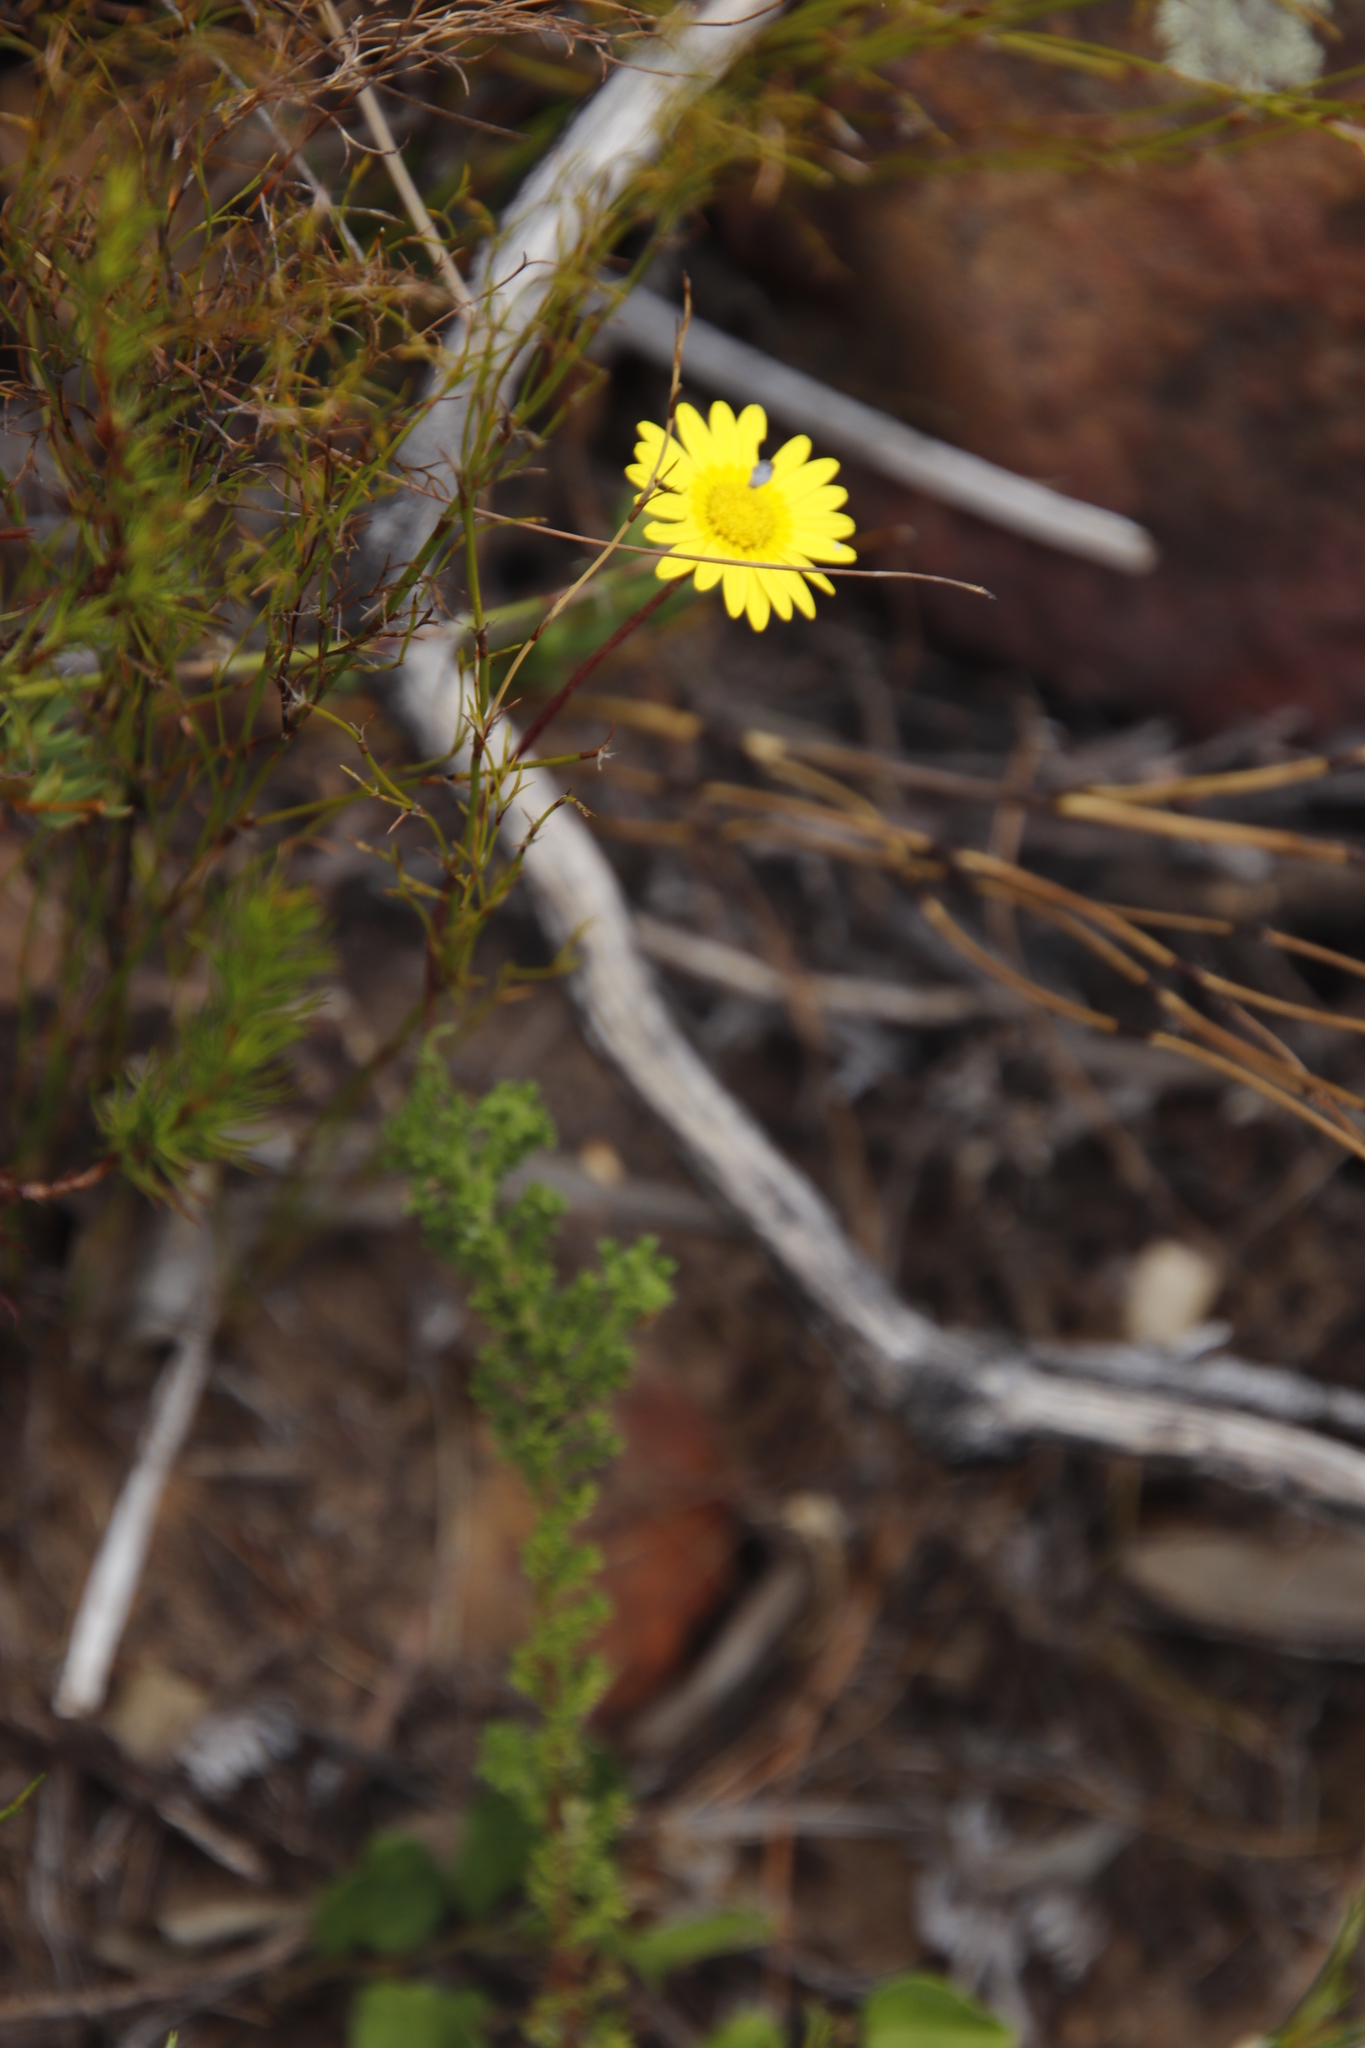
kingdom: Plantae
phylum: Tracheophyta
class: Magnoliopsida
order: Asterales
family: Asteraceae
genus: Ursinia
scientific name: Ursinia dentata
